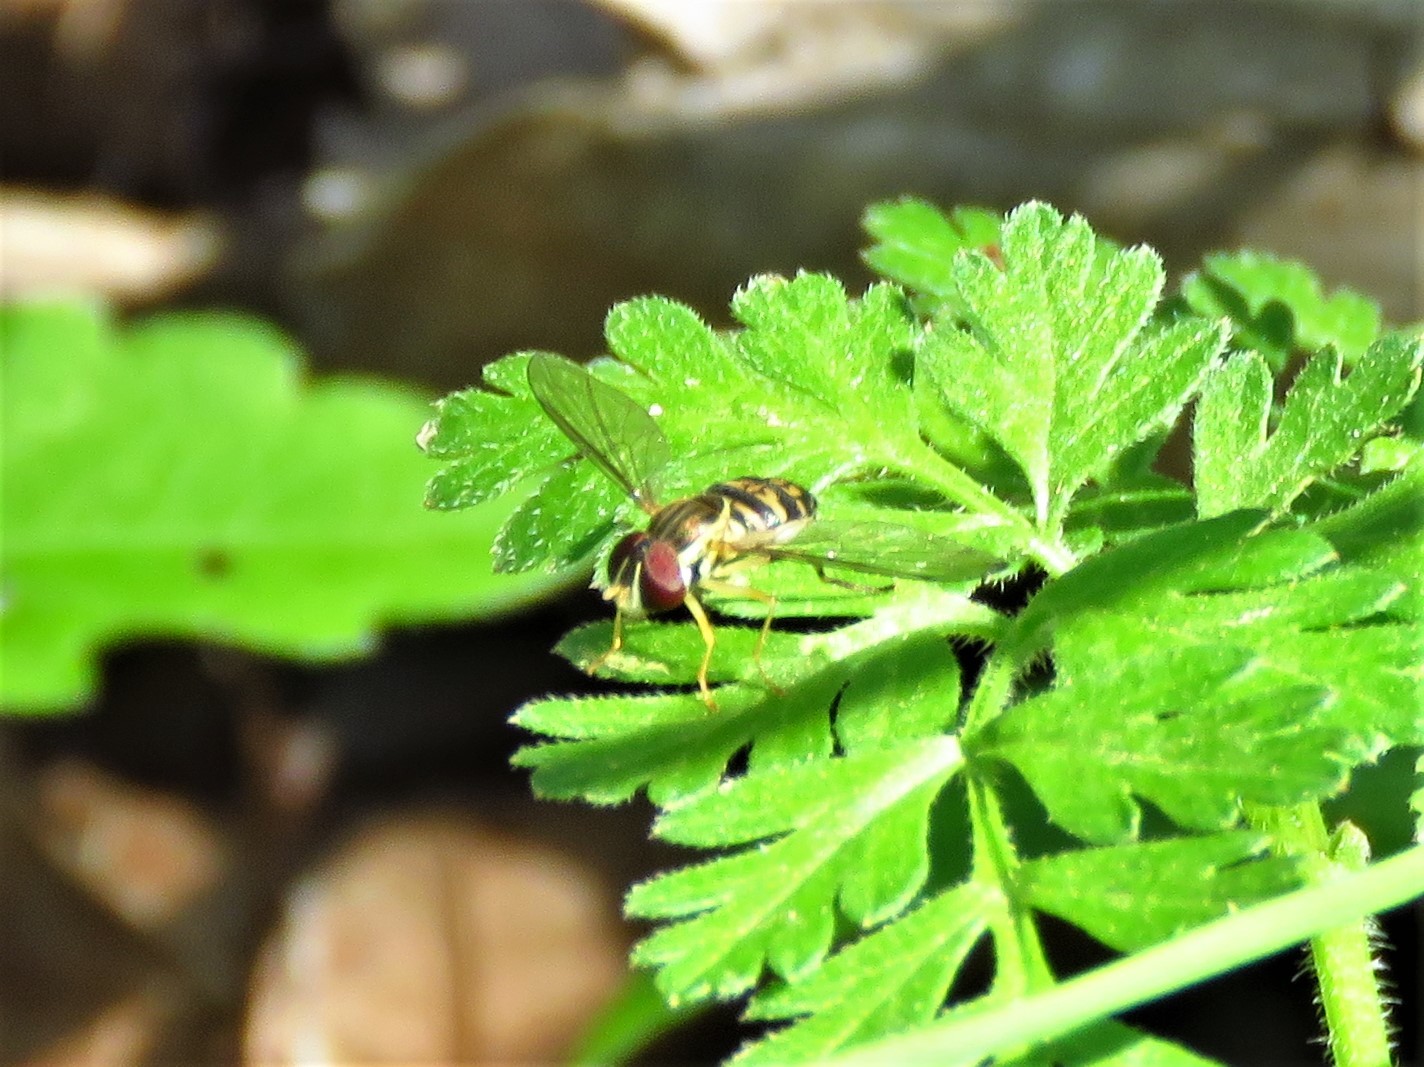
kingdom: Animalia
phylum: Arthropoda
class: Insecta
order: Diptera
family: Syrphidae
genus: Toxomerus
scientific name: Toxomerus geminatus
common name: Eastern calligrapher
